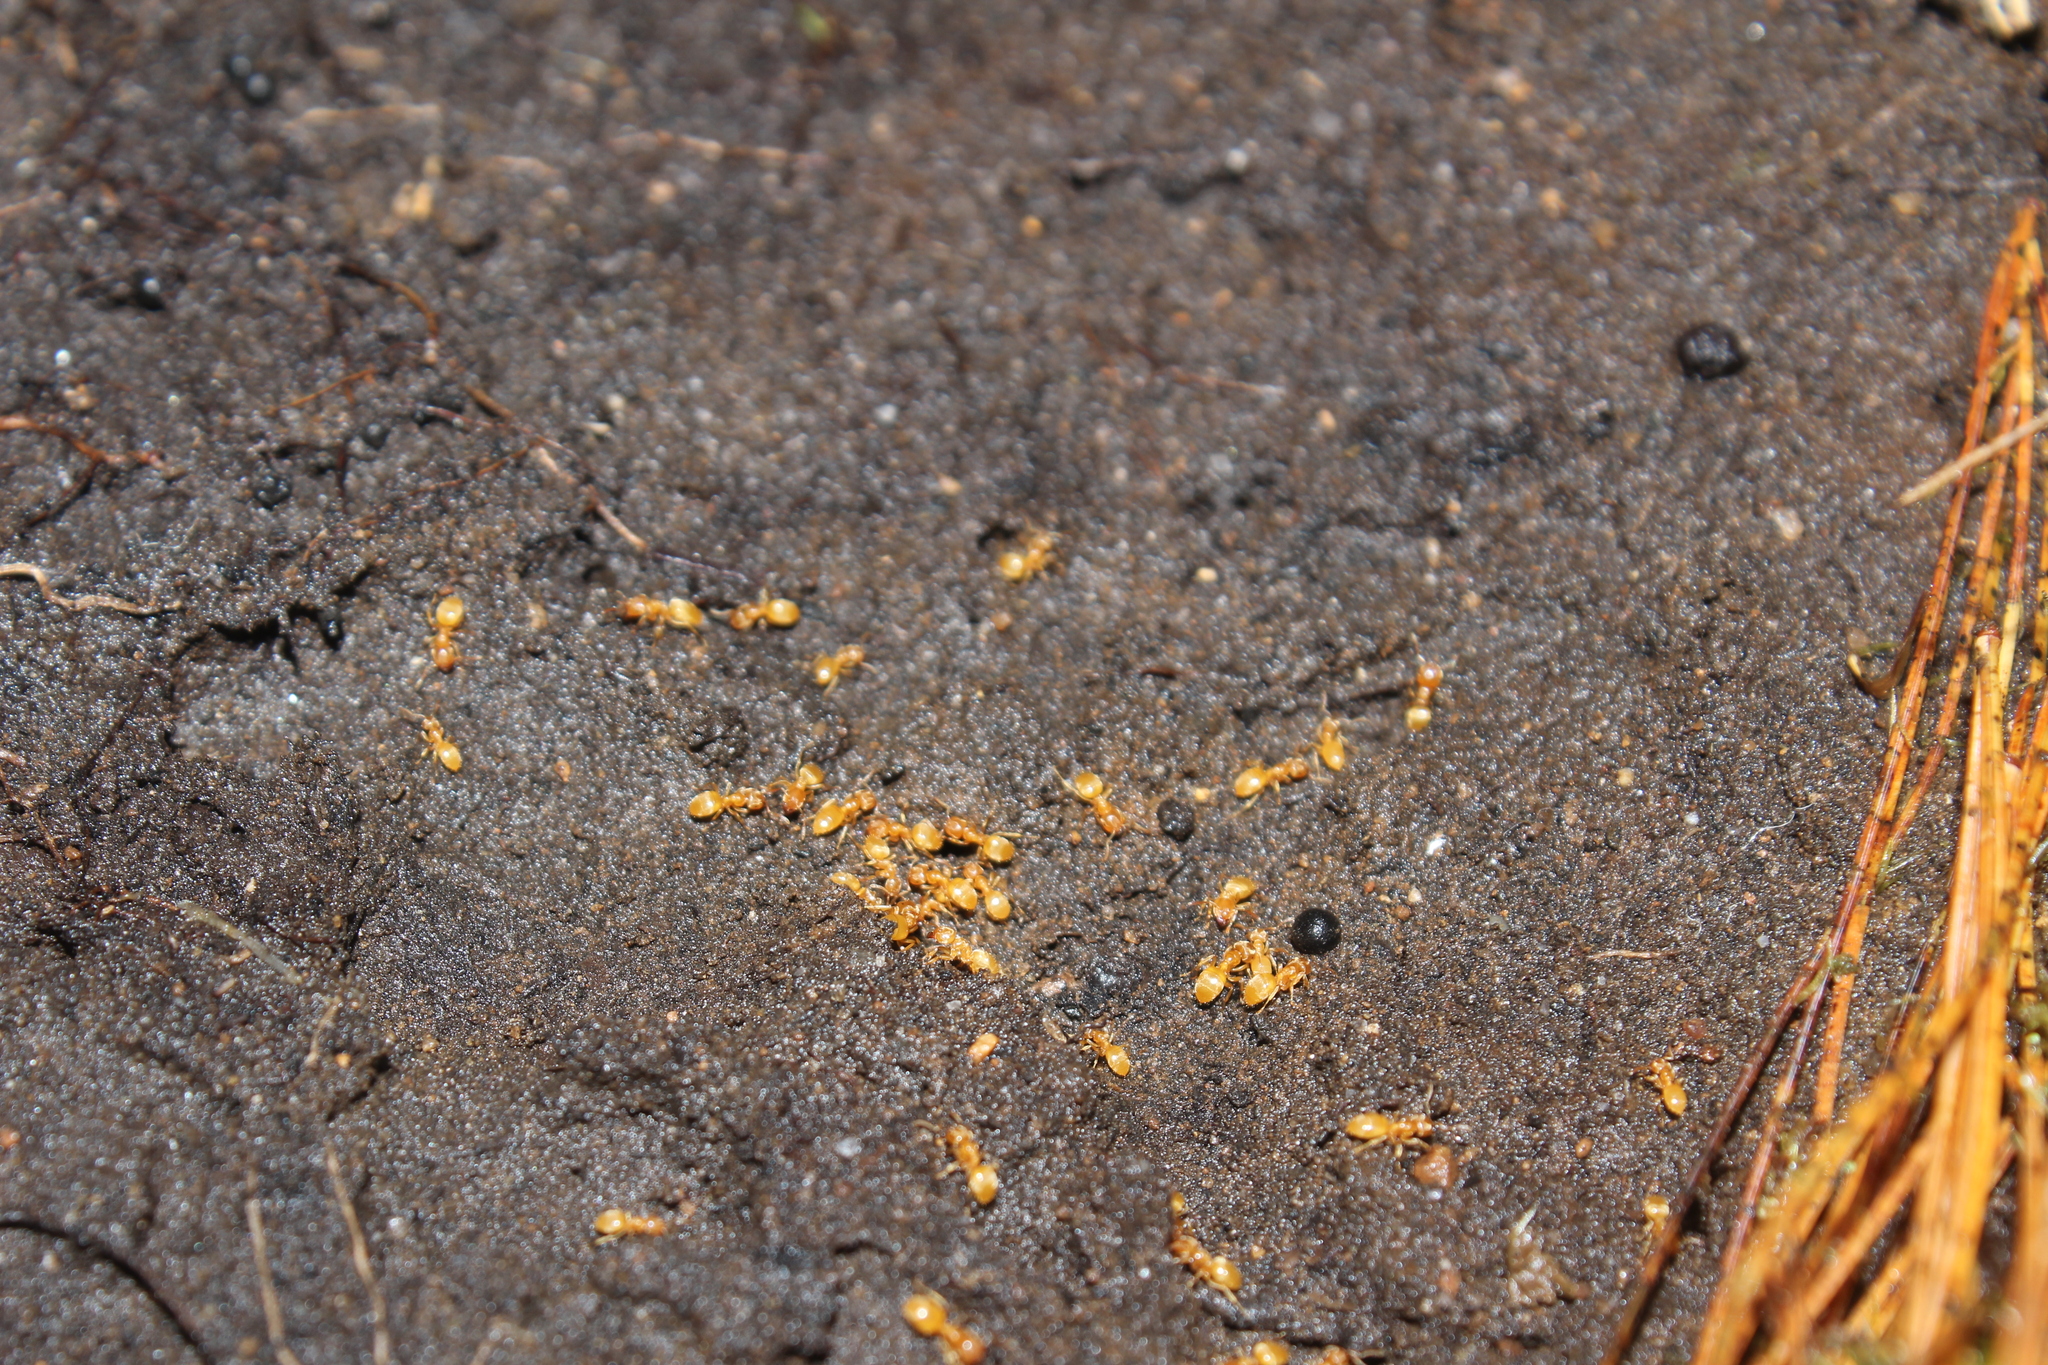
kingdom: Animalia
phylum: Arthropoda
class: Insecta
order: Hymenoptera
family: Formicidae
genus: Lasius
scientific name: Lasius nearcticus
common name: New world fuzzy ant
